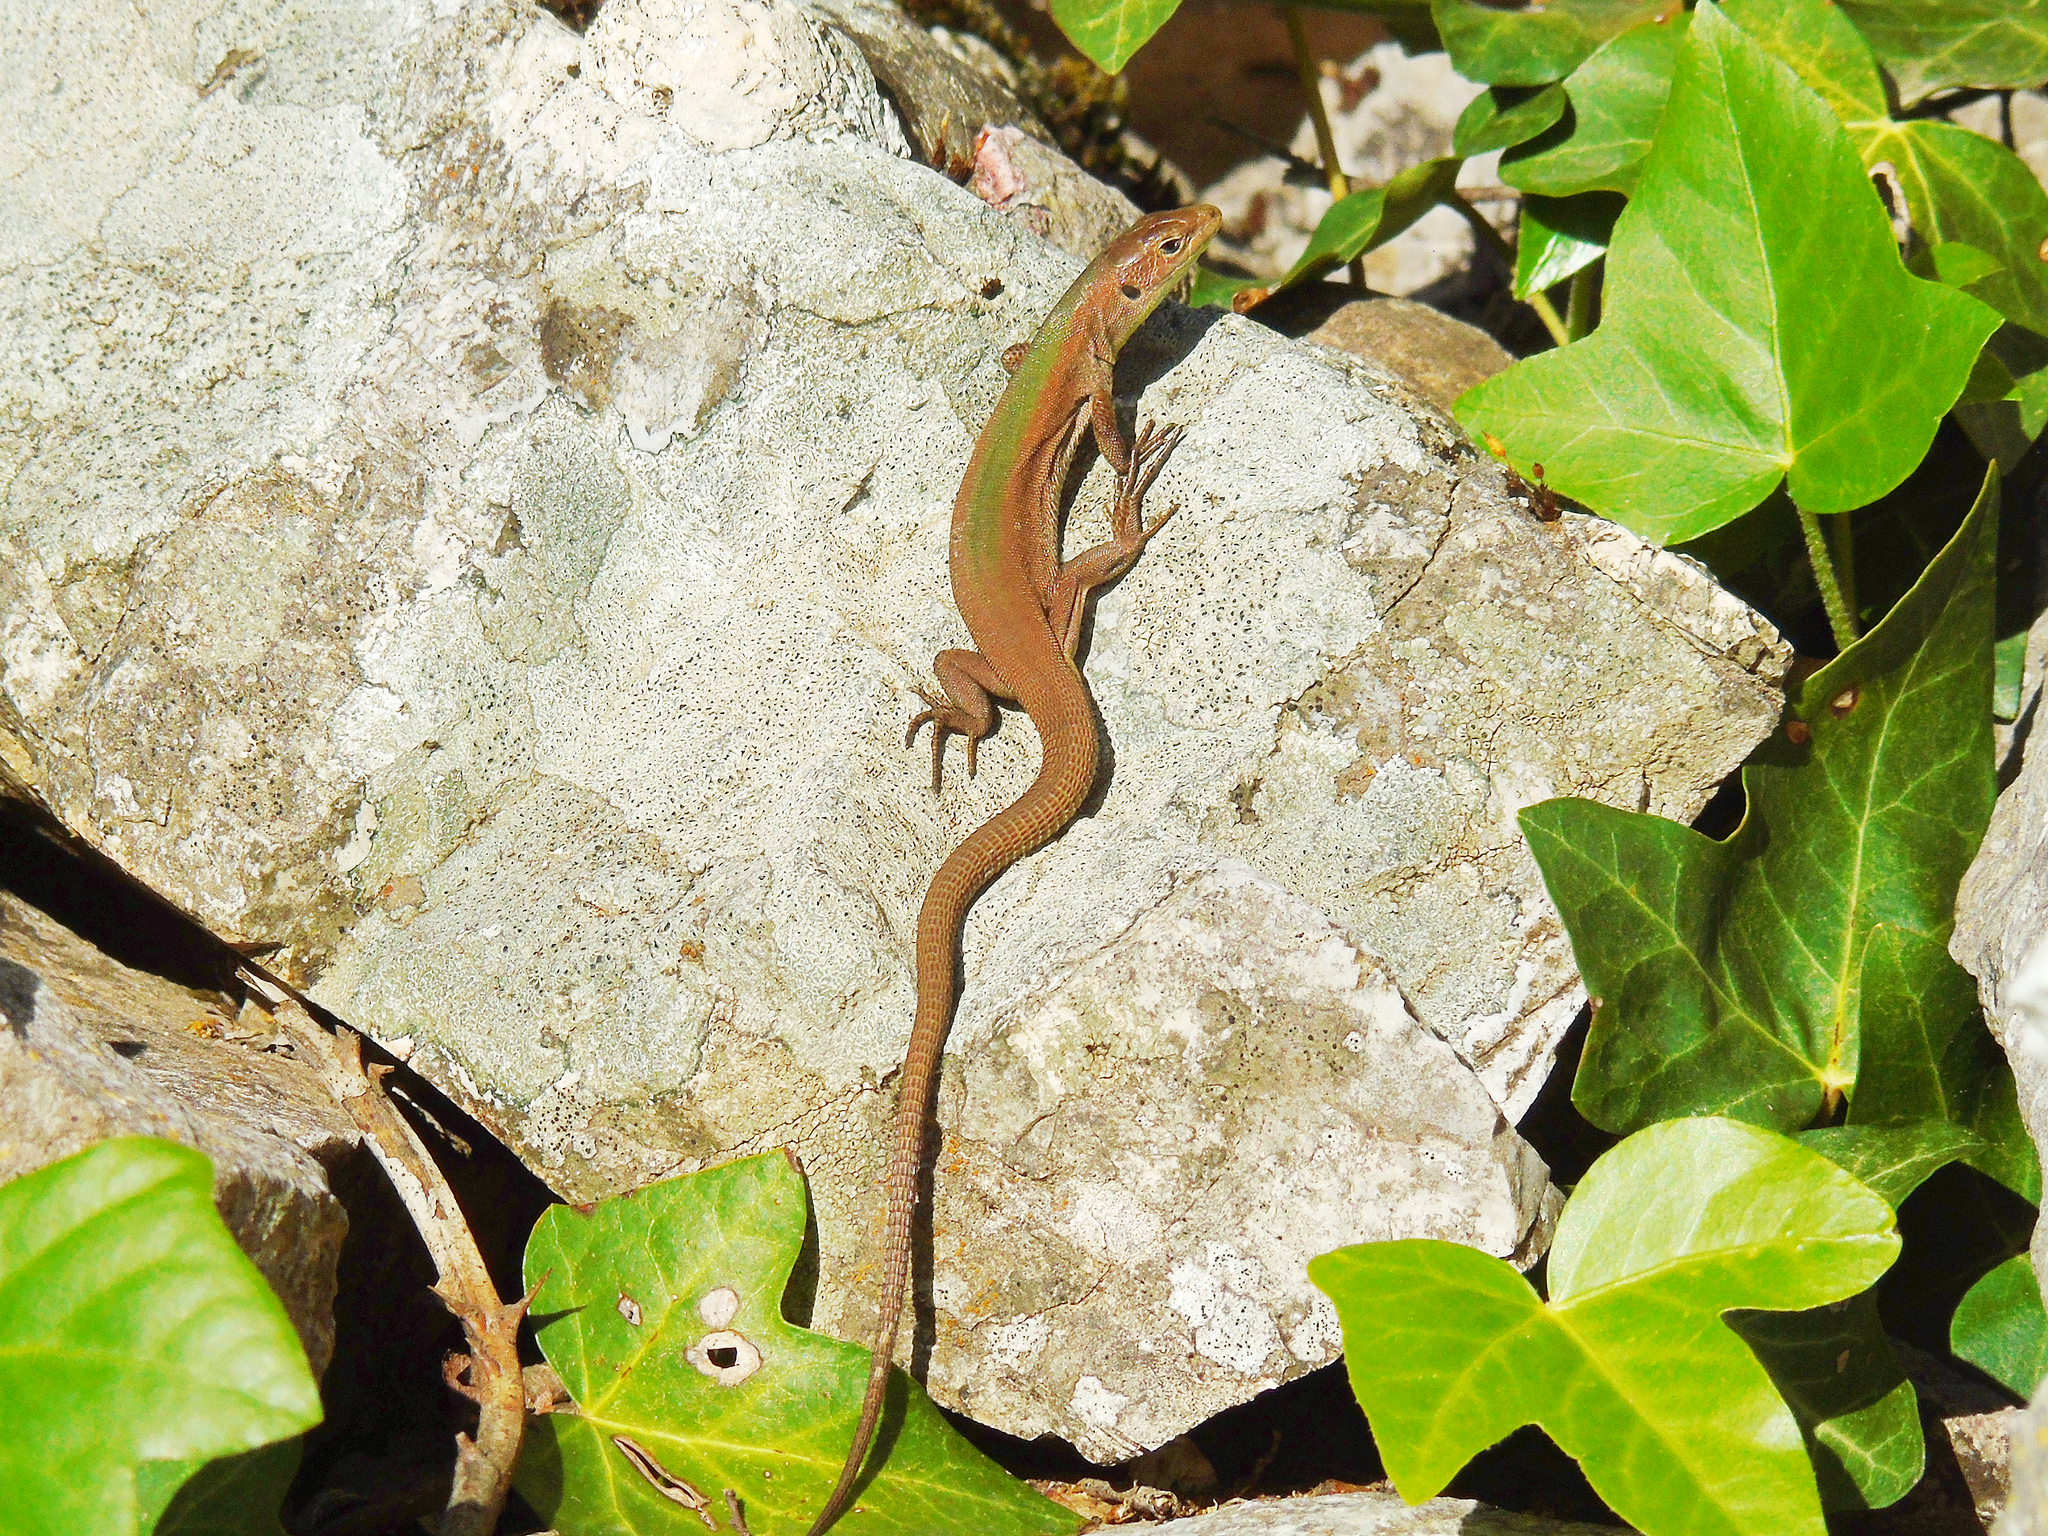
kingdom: Animalia
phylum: Chordata
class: Squamata
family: Lacertidae
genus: Podarcis
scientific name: Podarcis melisellensis
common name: Dalmatian wall lizard
